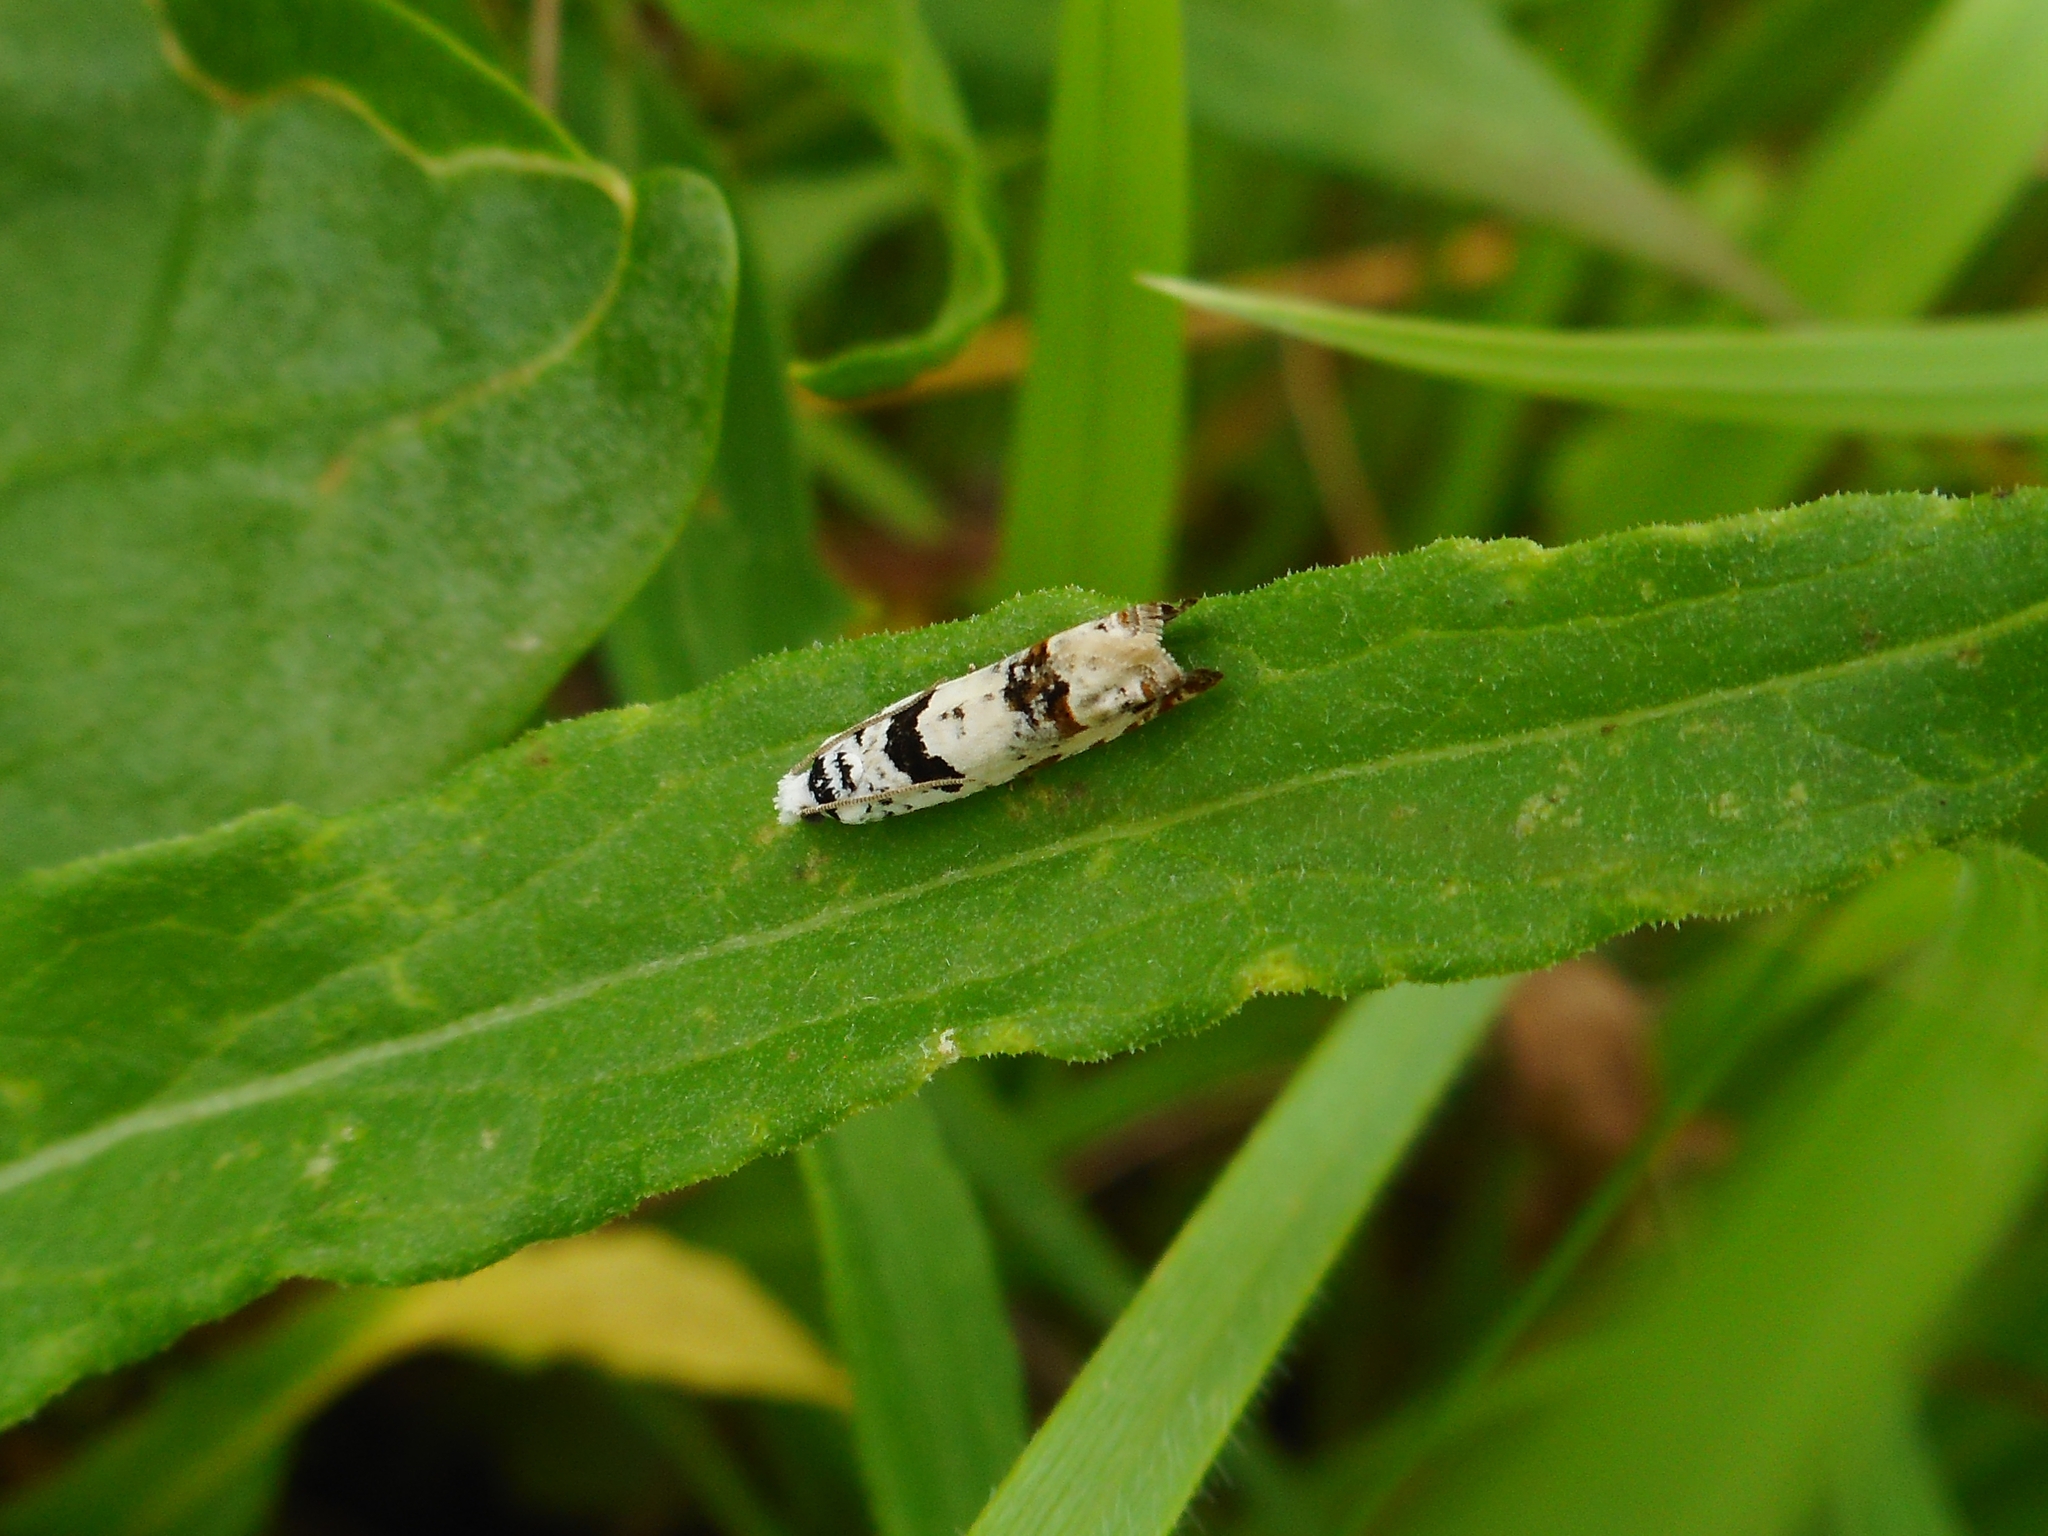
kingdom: Animalia
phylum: Arthropoda
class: Insecta
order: Lepidoptera
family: Tortricidae
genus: Eucosma
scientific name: Eucosma campoliliana
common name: Marbled bell
